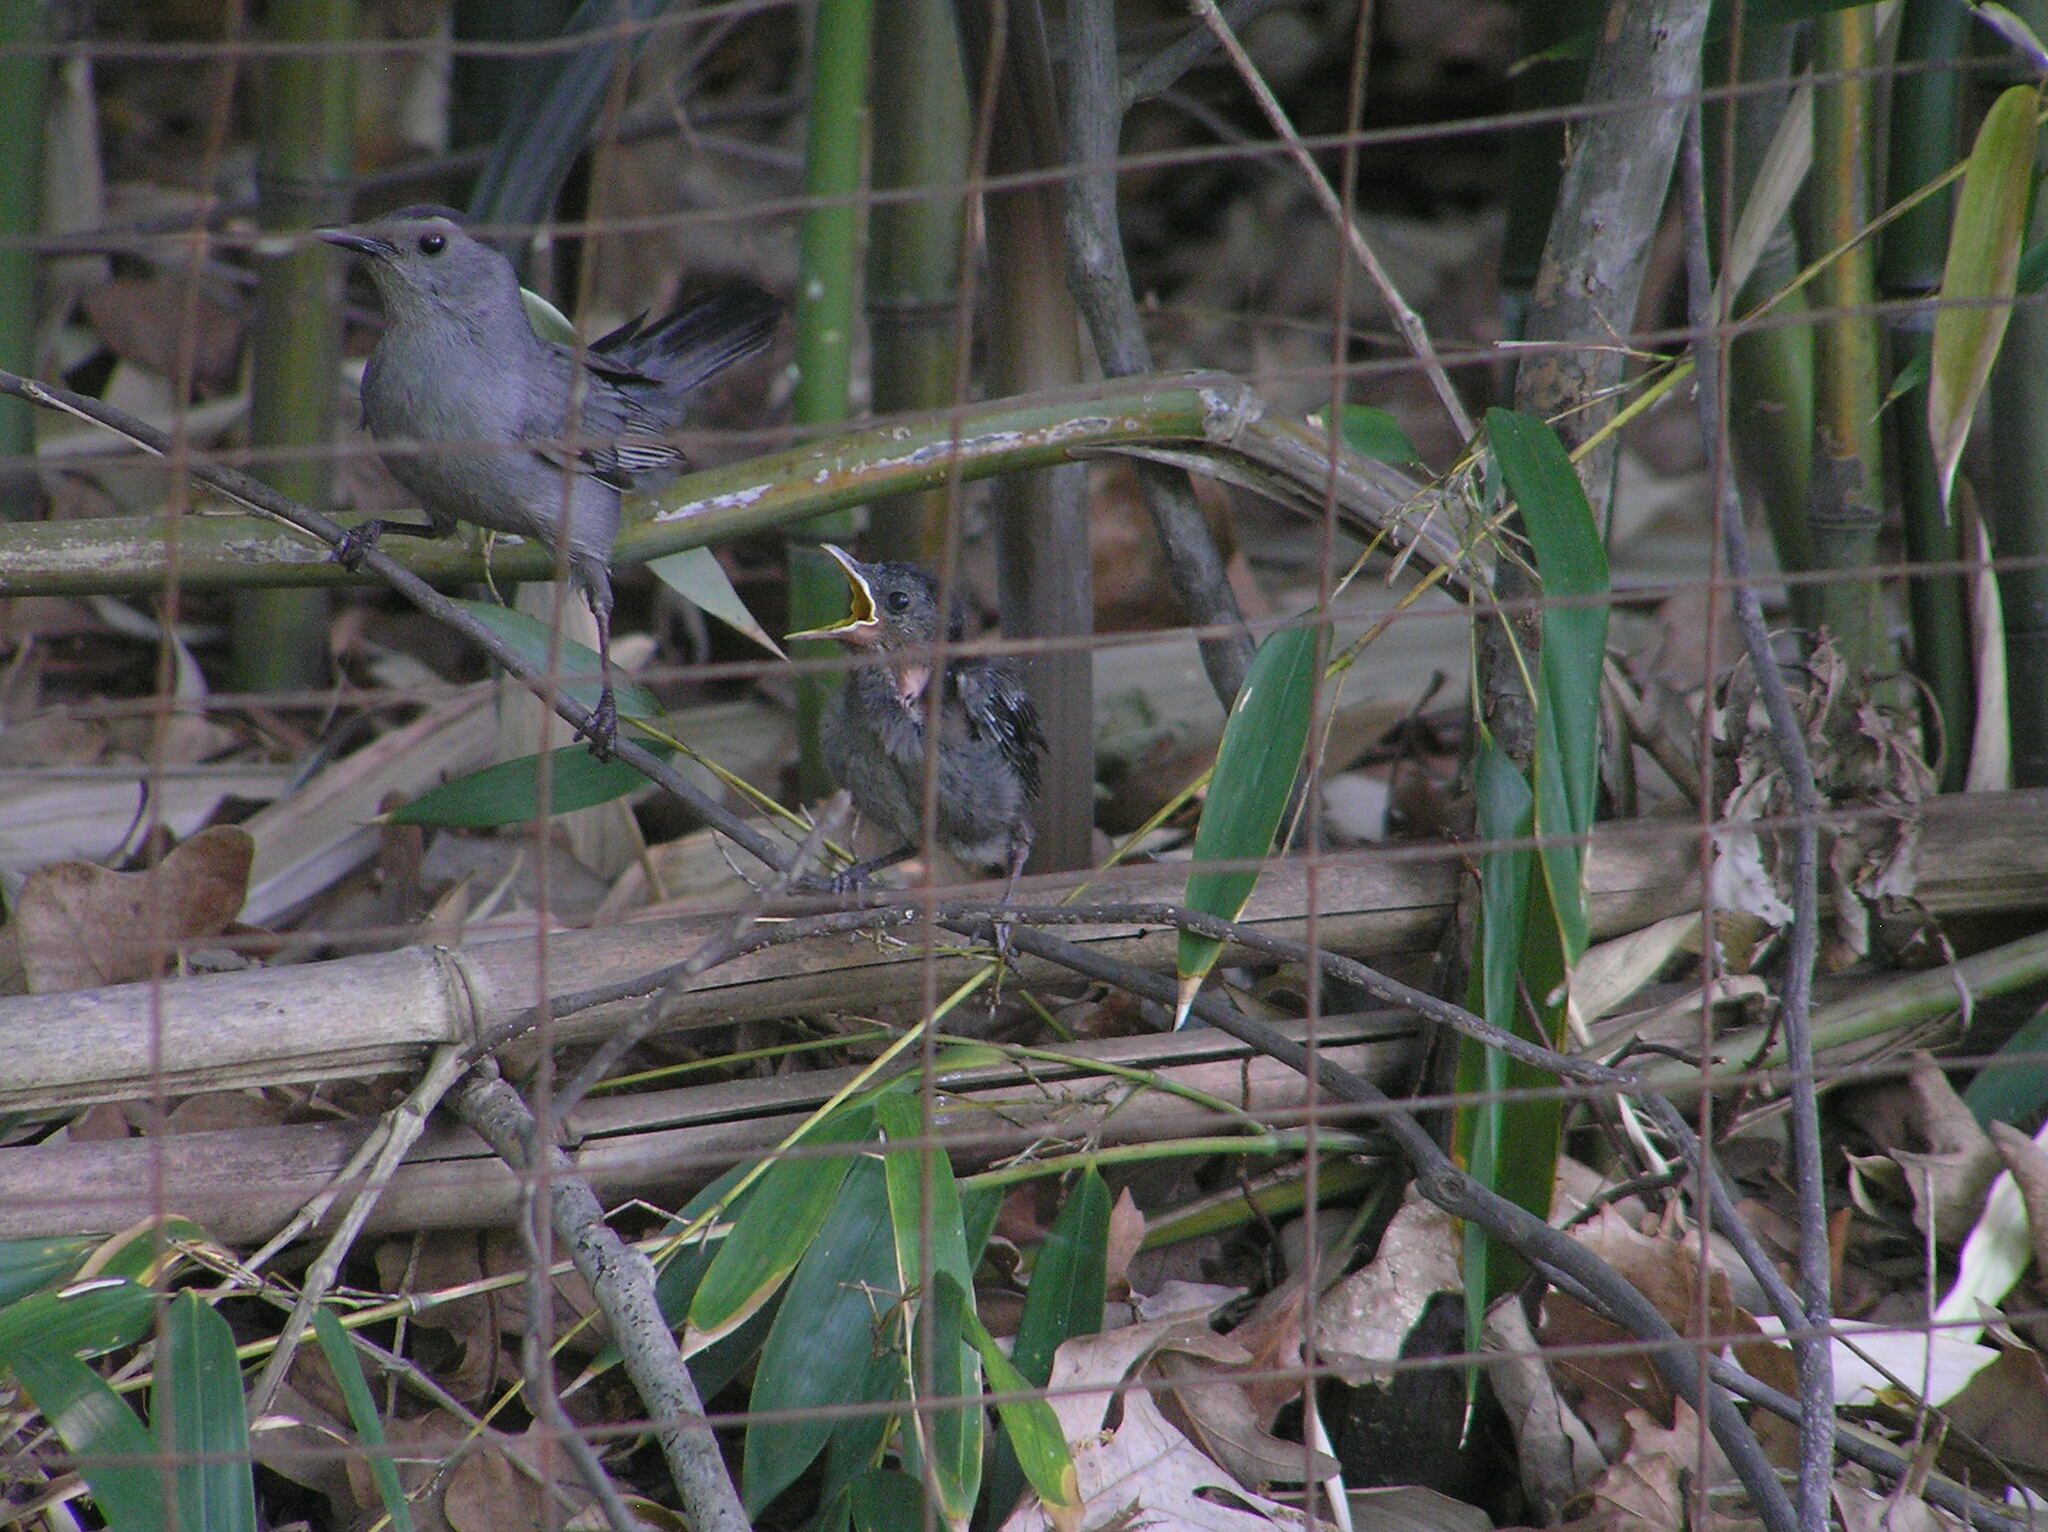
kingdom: Animalia
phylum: Chordata
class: Aves
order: Passeriformes
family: Mimidae
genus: Dumetella
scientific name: Dumetella carolinensis
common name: Gray catbird
